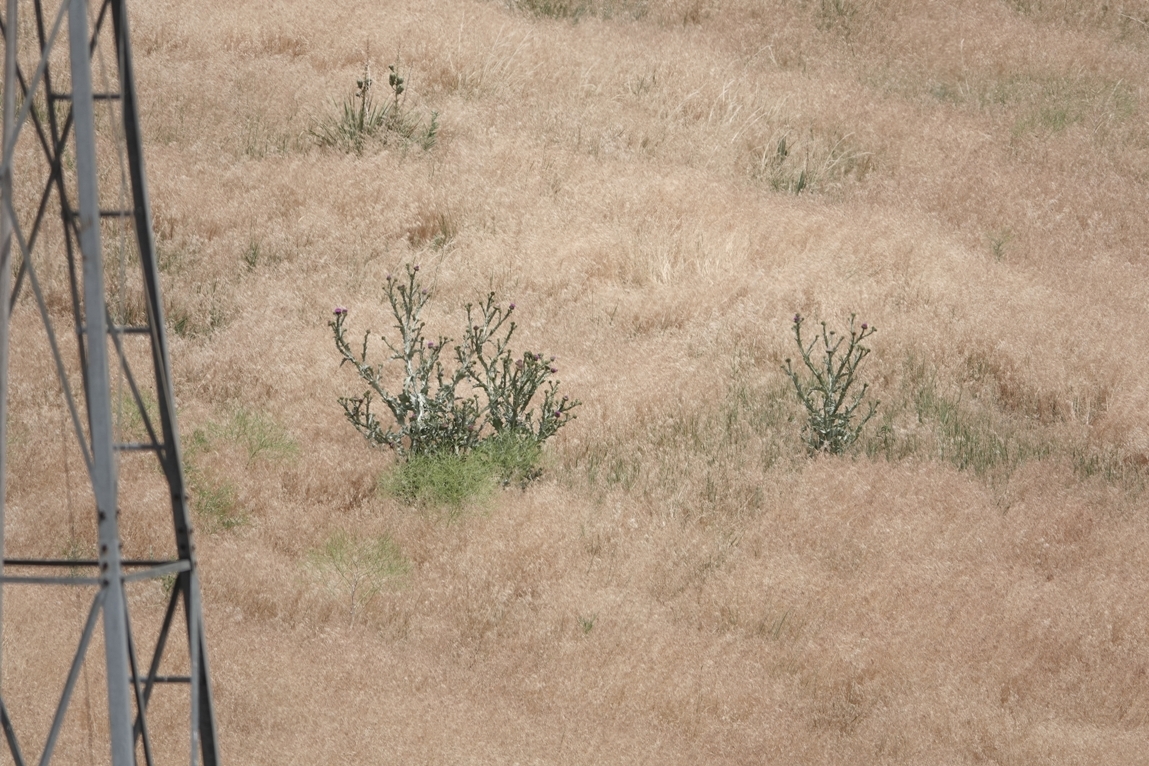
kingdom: Plantae
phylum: Tracheophyta
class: Magnoliopsida
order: Asterales
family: Asteraceae
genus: Onopordum
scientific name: Onopordum acanthium
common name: Scotch thistle
